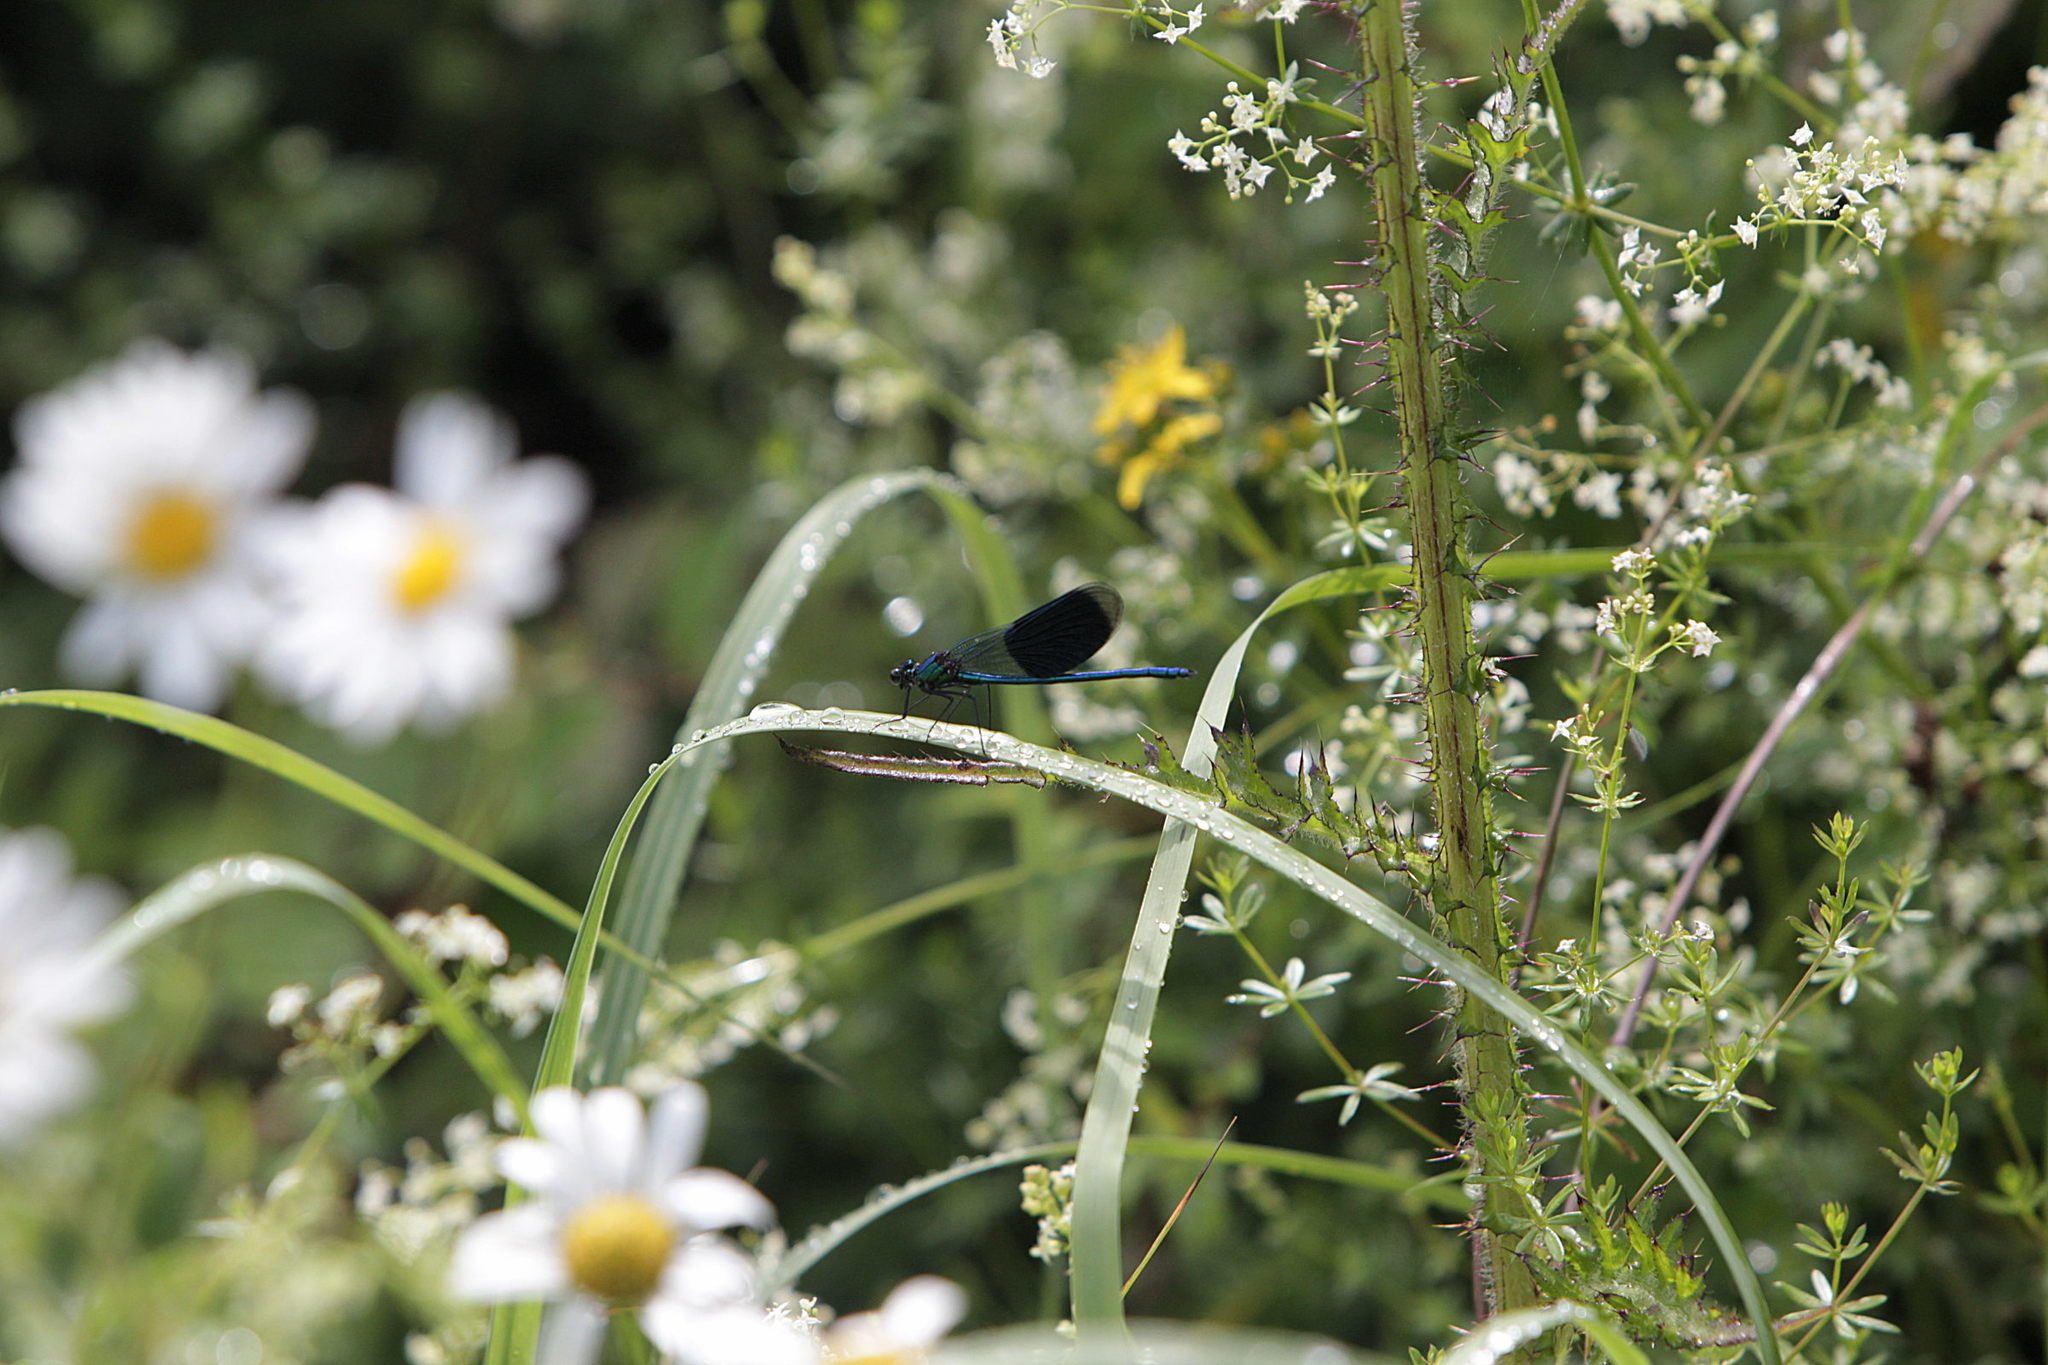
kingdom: Animalia
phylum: Arthropoda
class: Insecta
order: Odonata
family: Calopterygidae
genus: Calopteryx
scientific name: Calopteryx splendens
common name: Banded demoiselle
